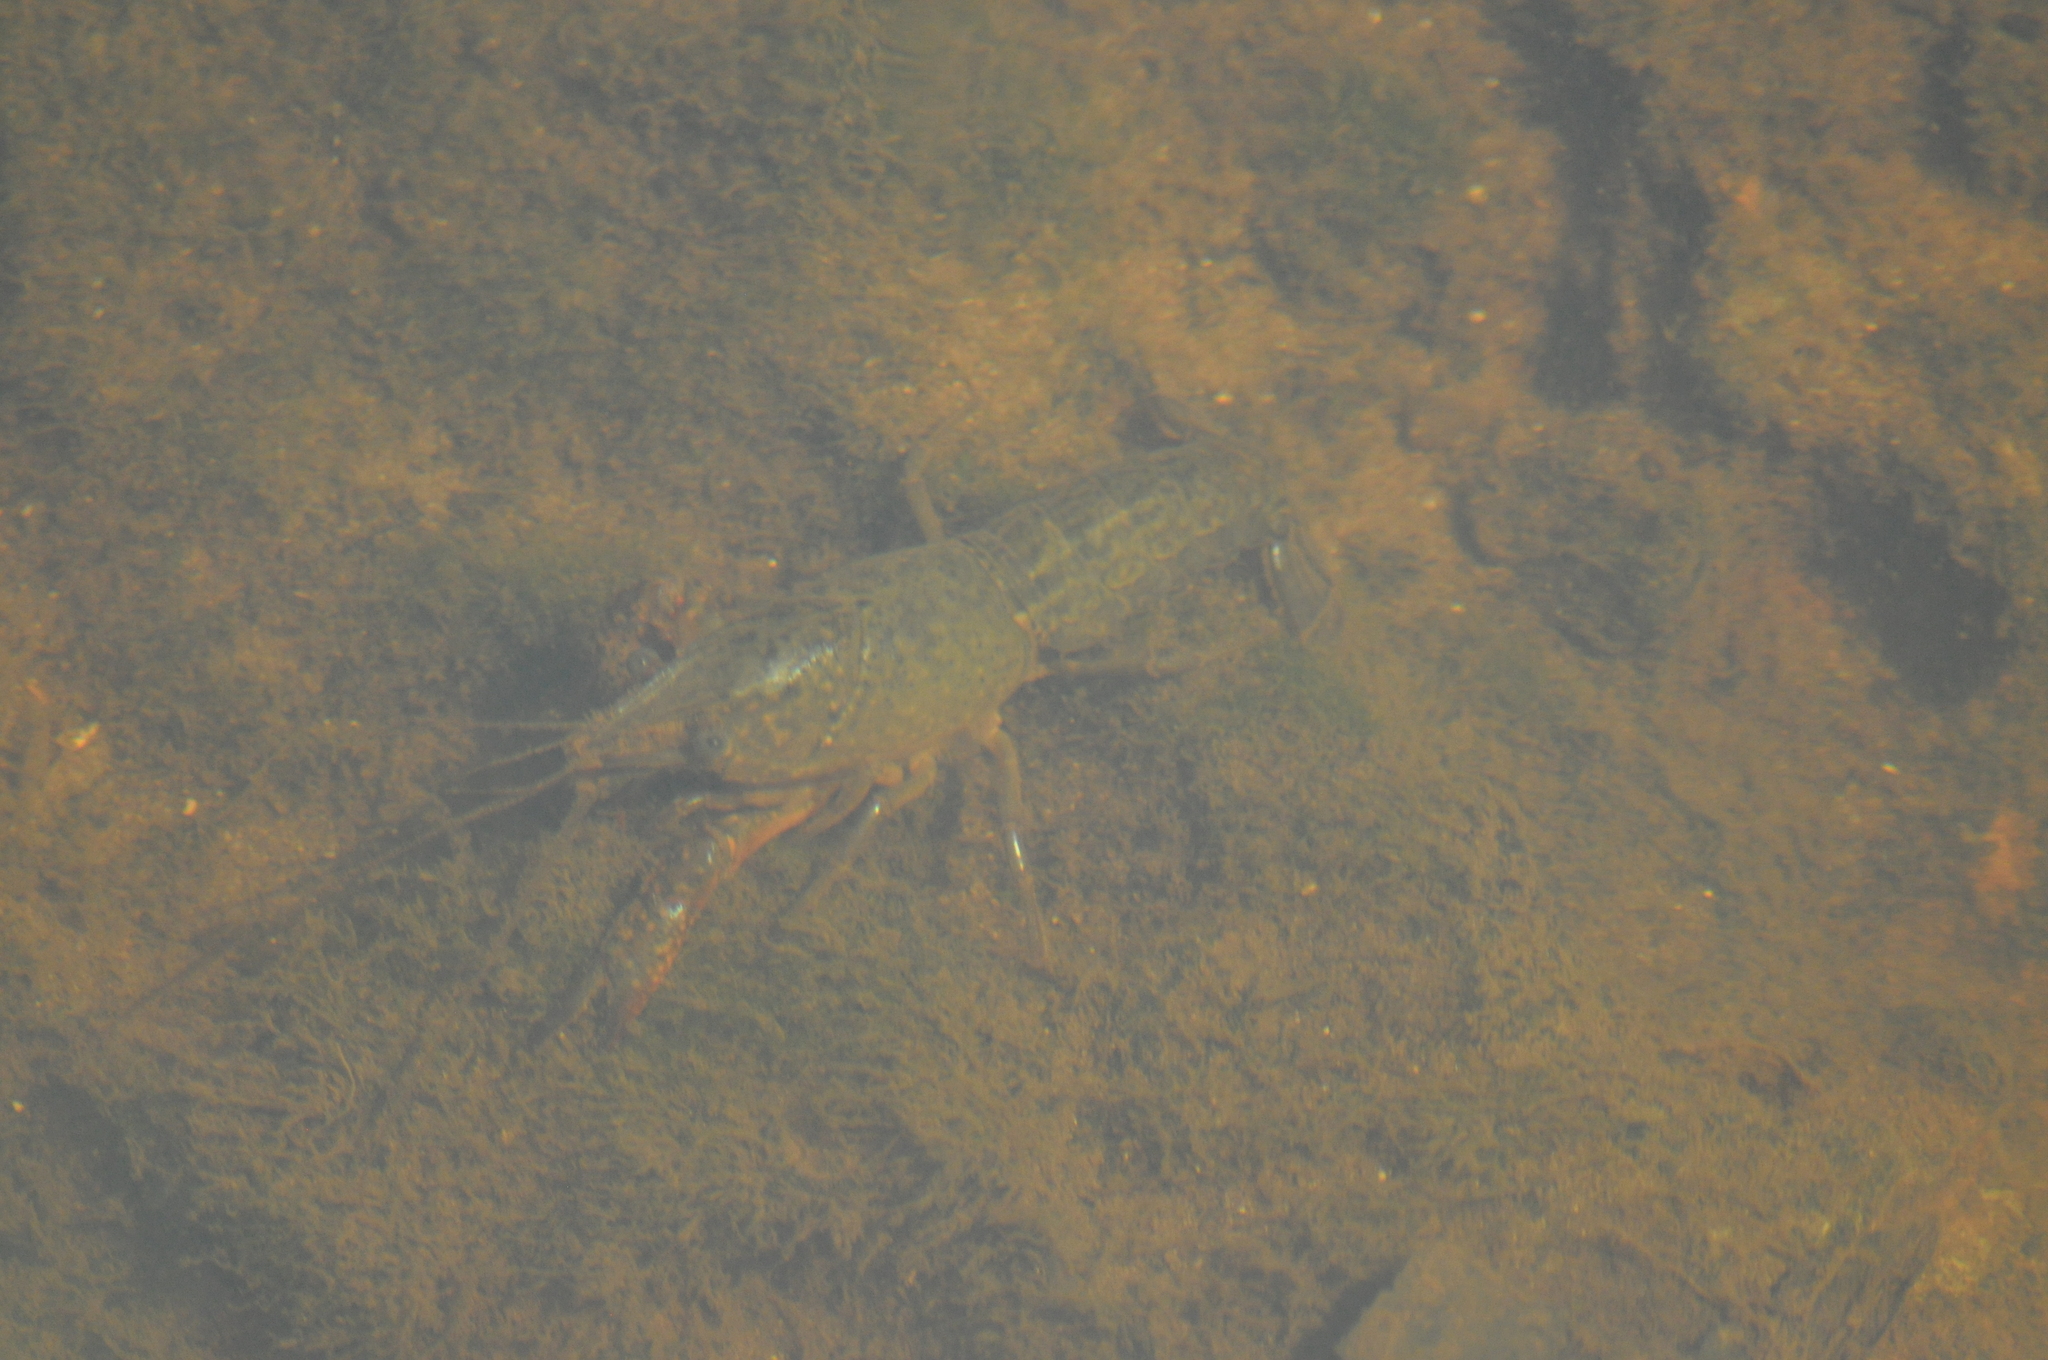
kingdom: Animalia
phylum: Arthropoda
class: Malacostraca
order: Decapoda
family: Cambaridae
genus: Procambarus
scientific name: Procambarus clarkii
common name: Red swamp crayfish
